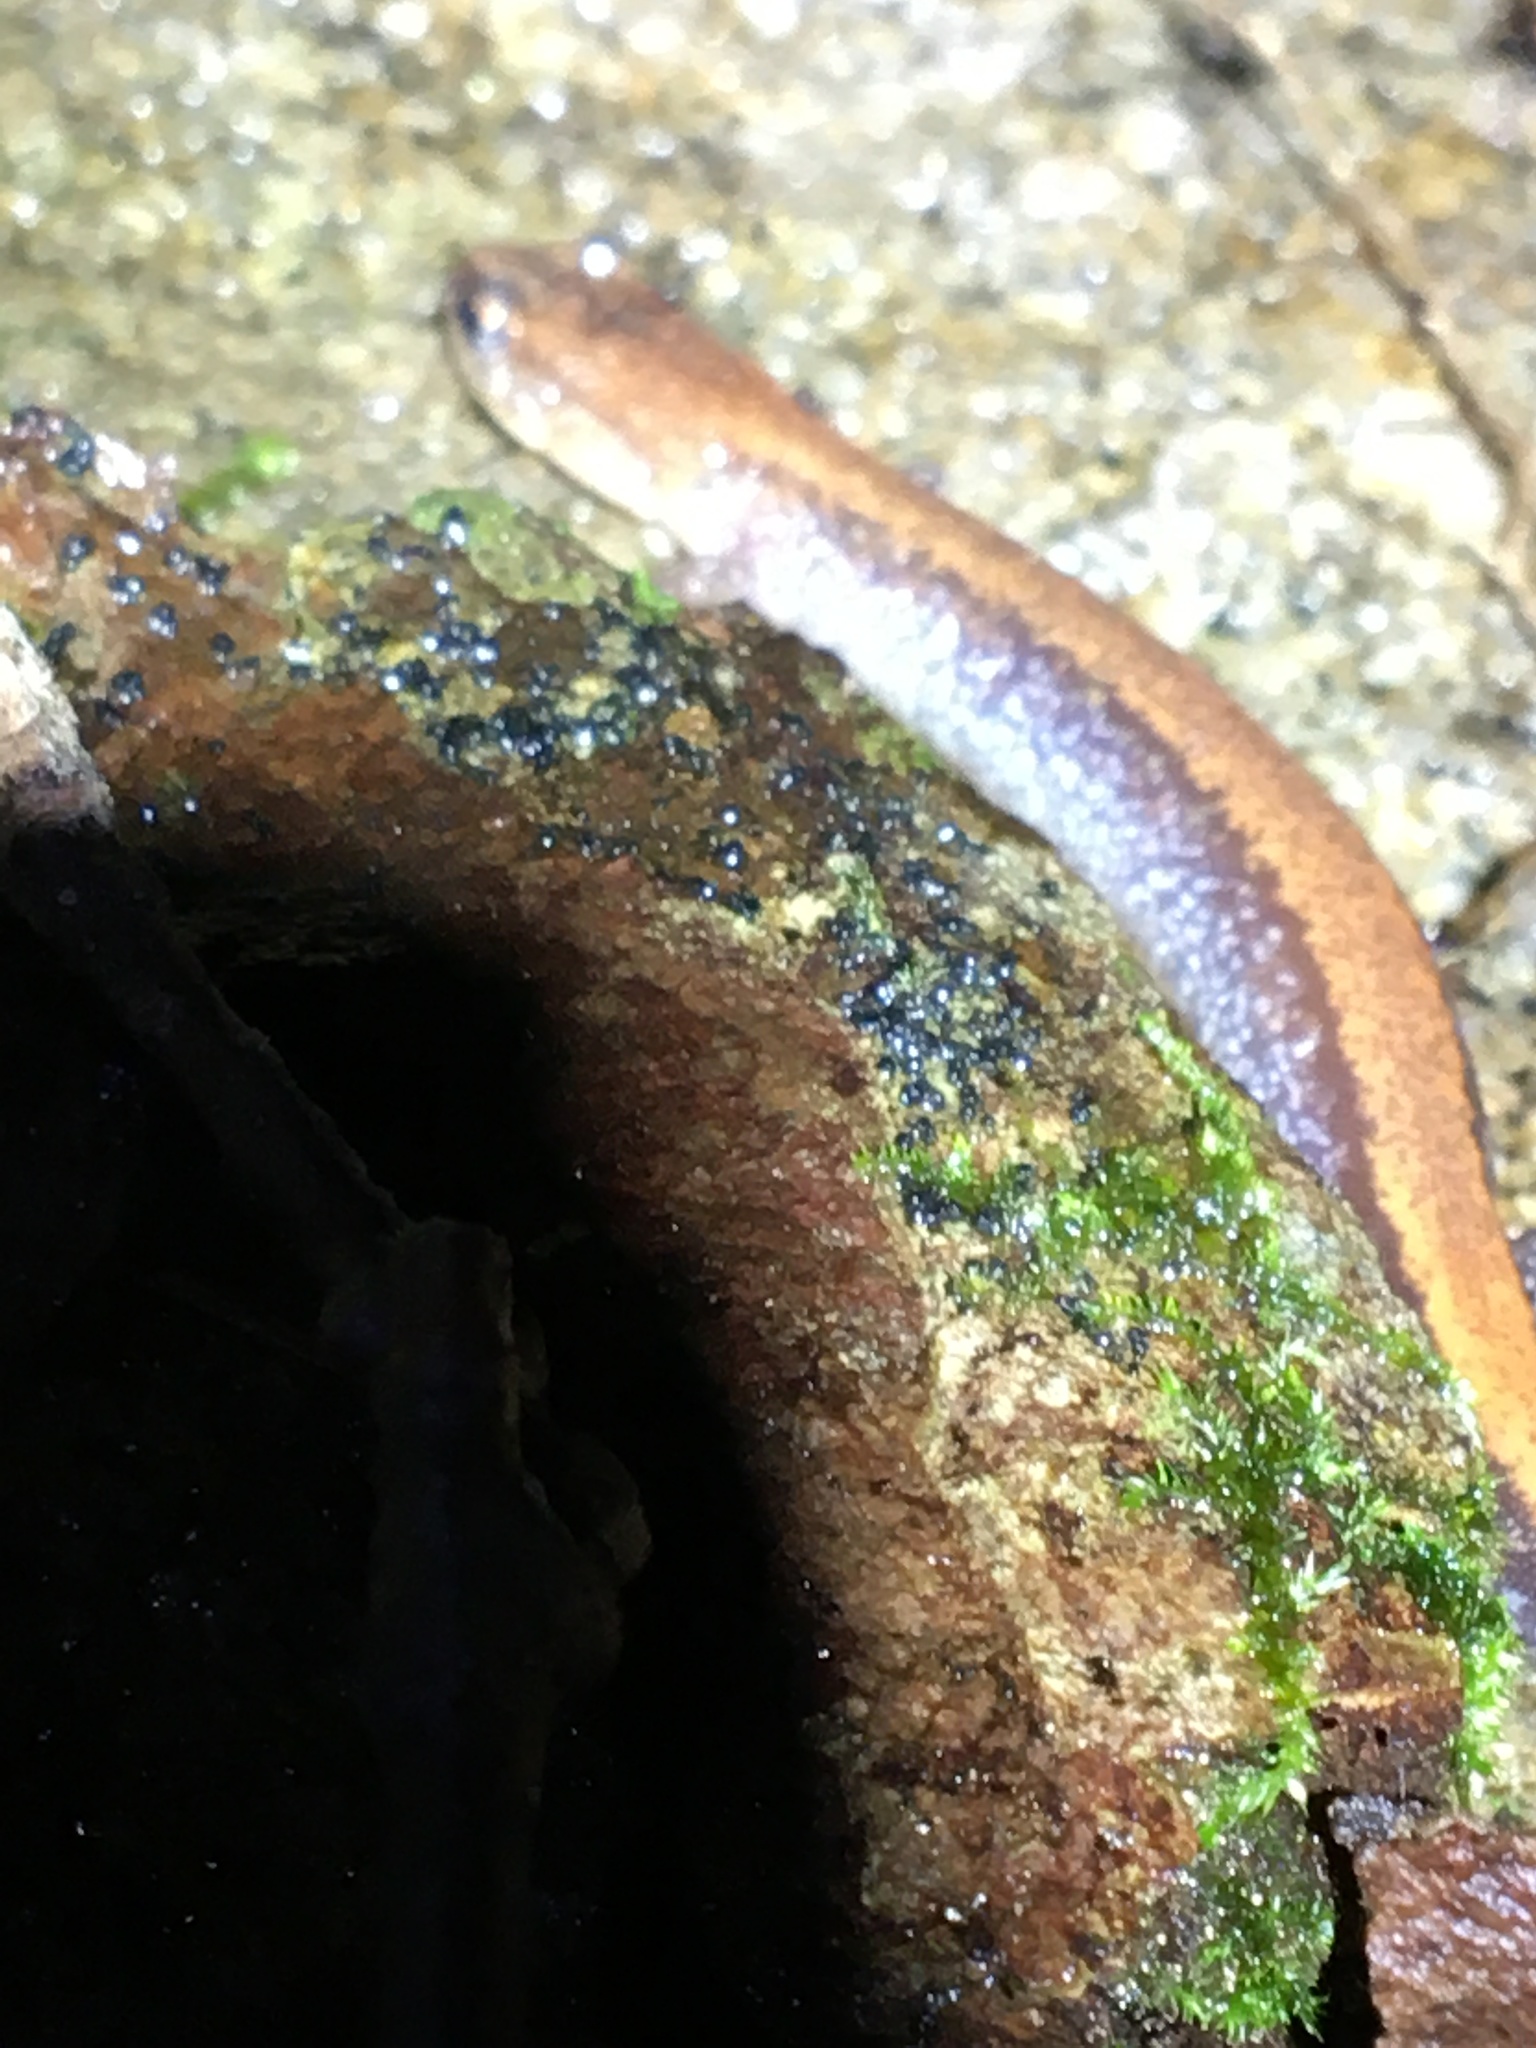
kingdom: Animalia
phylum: Chordata
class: Amphibia
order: Caudata
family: Plethodontidae
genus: Plethodon
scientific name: Plethodon cinereus
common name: Redback salamander
